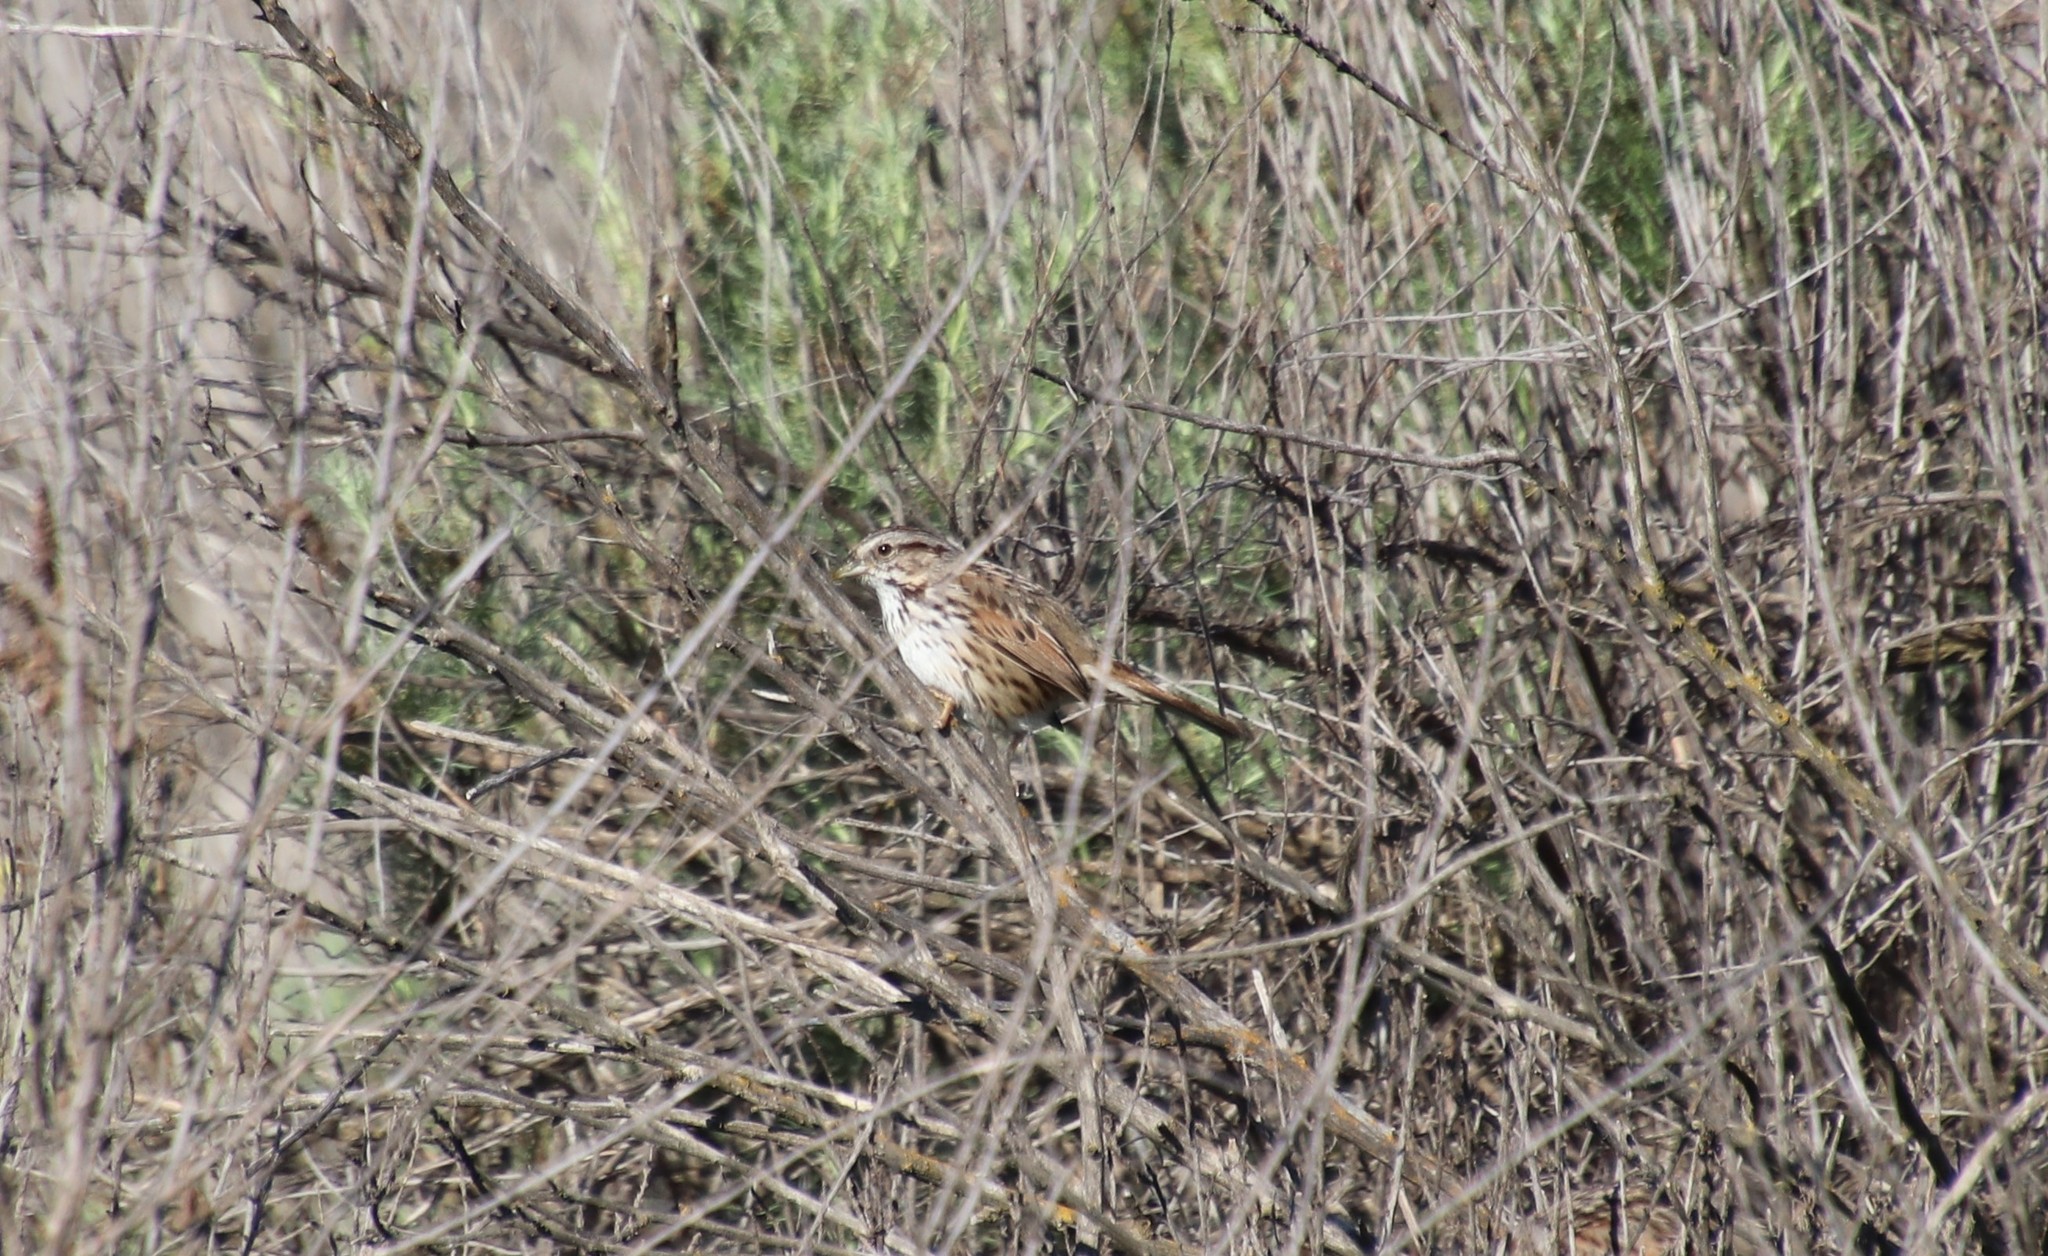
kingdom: Animalia
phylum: Chordata
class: Aves
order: Passeriformes
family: Passerellidae
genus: Melospiza
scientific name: Melospiza melodia
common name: Song sparrow
